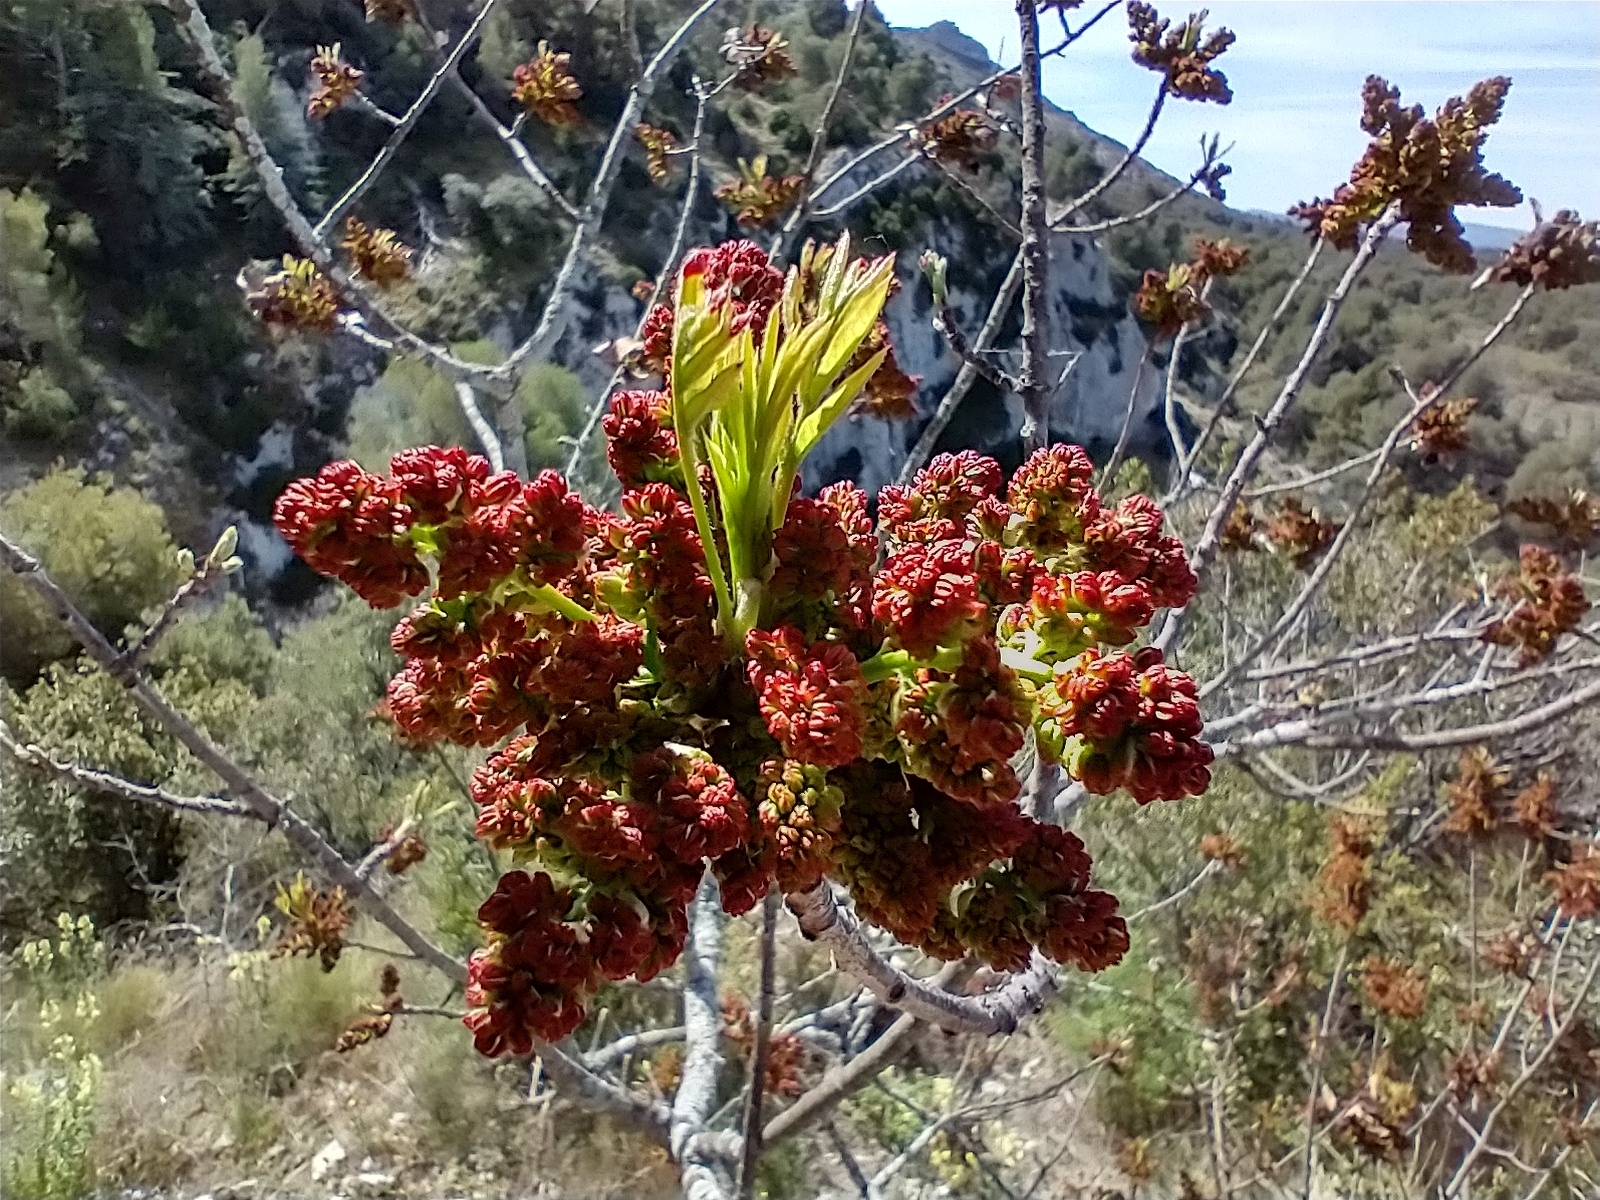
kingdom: Plantae
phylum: Tracheophyta
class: Magnoliopsida
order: Sapindales
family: Anacardiaceae
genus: Pistacia
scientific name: Pistacia terebinthus
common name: Terebinth
